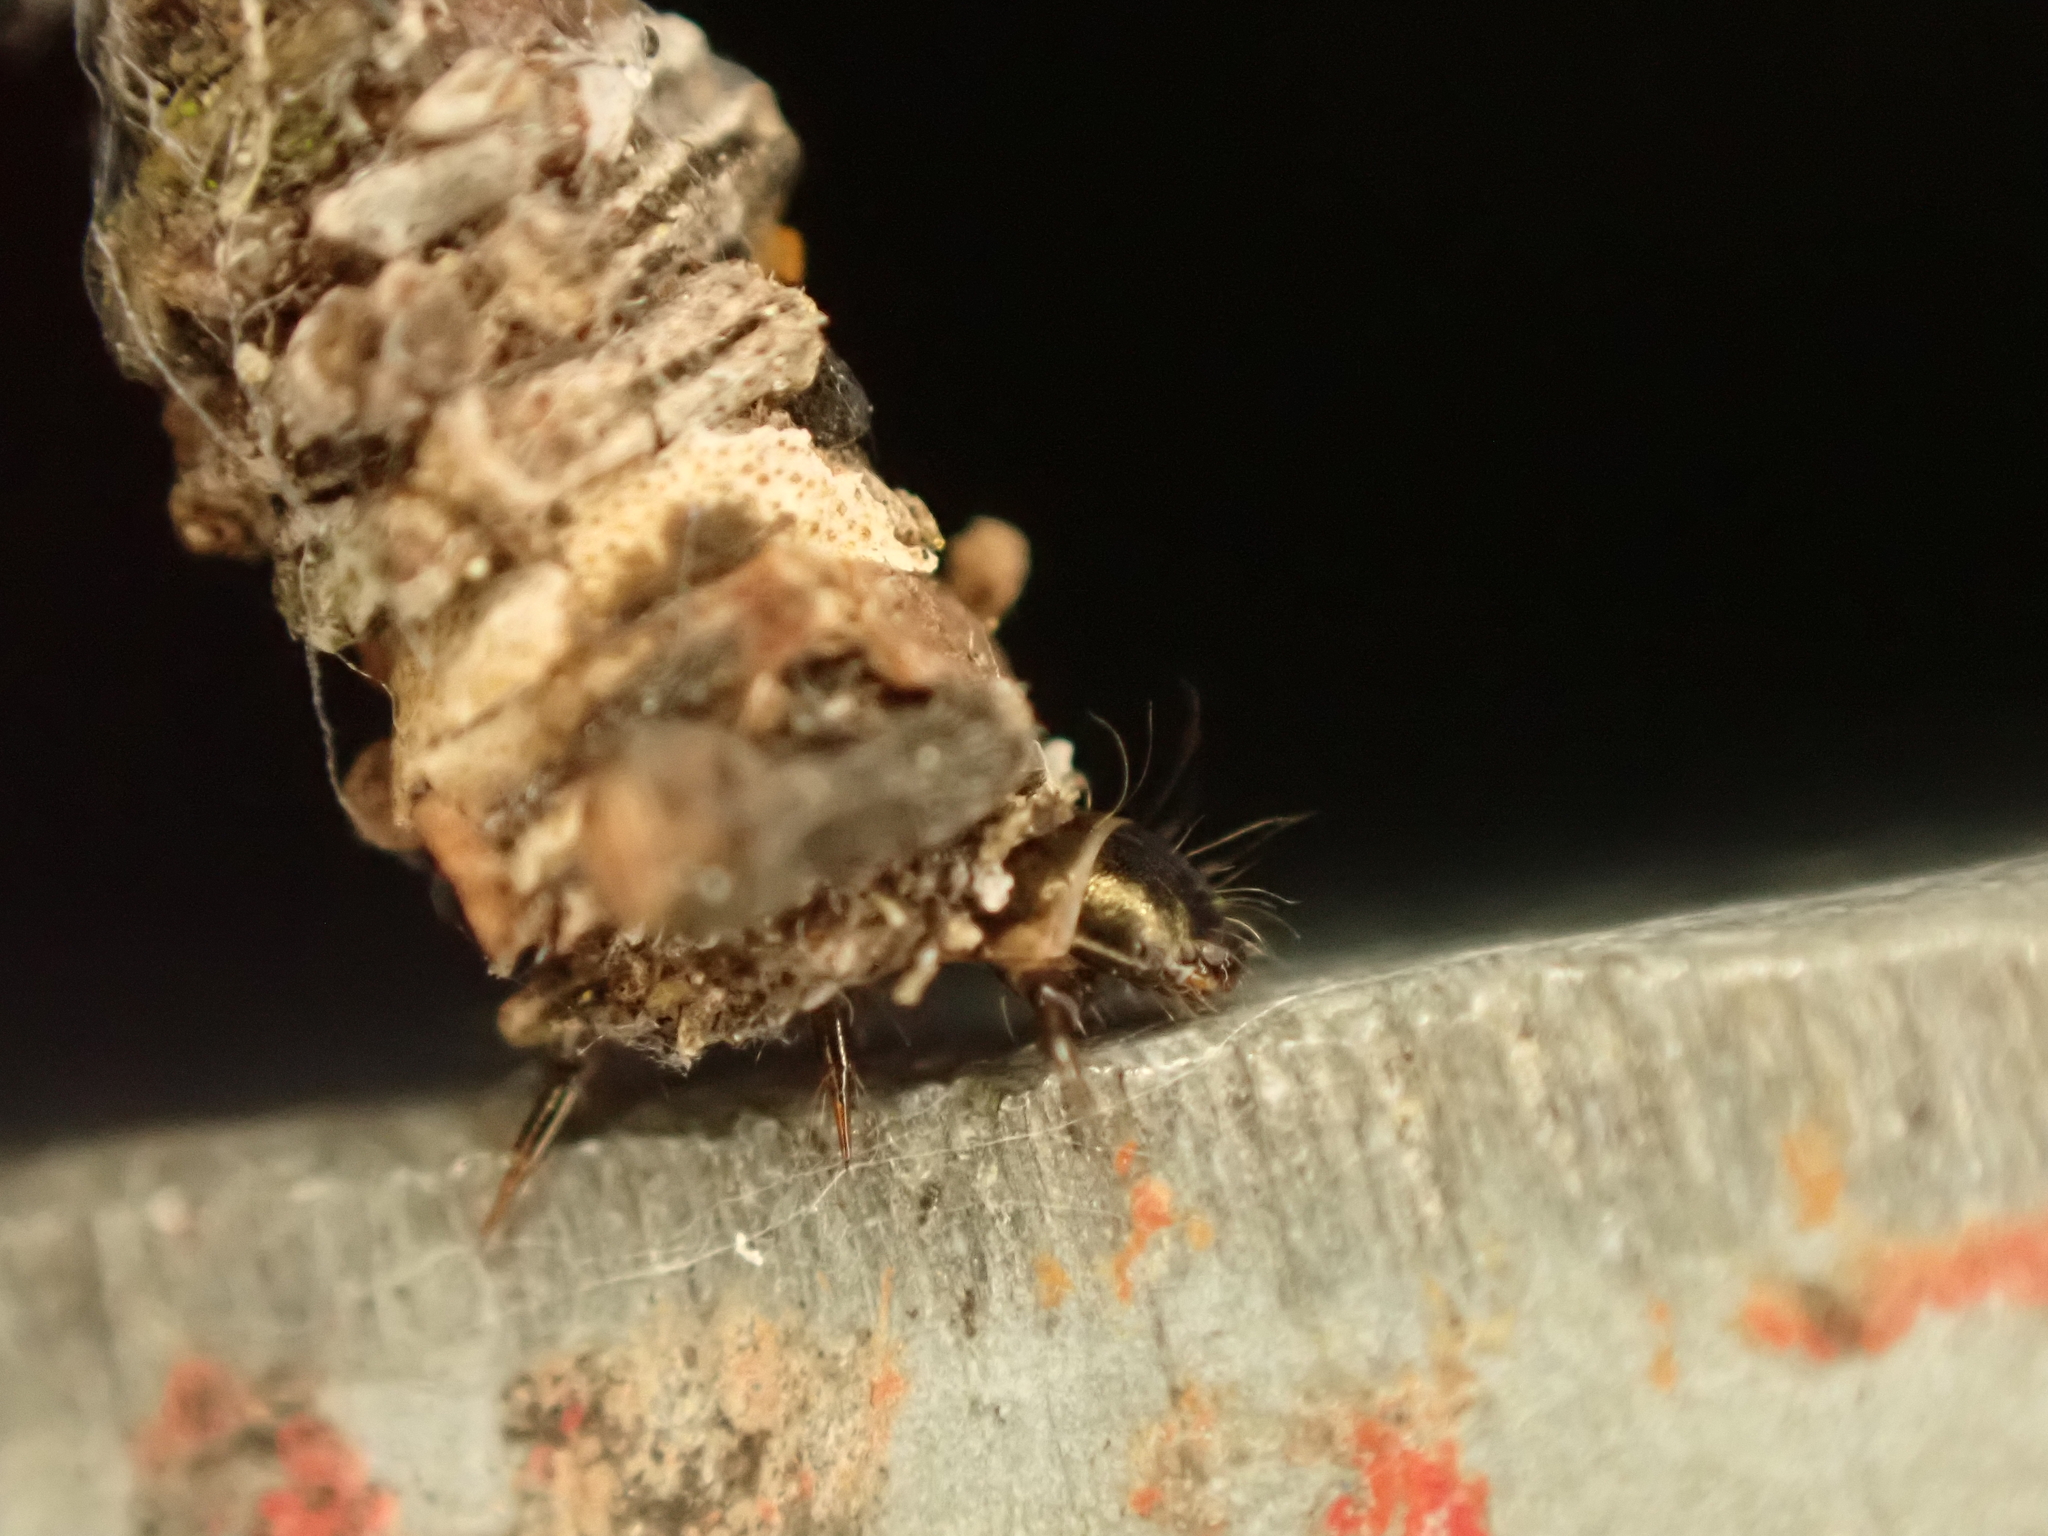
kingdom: Animalia
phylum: Arthropoda
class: Insecta
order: Lepidoptera
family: Psychidae
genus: Lepidoscia
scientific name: Lepidoscia protorna
